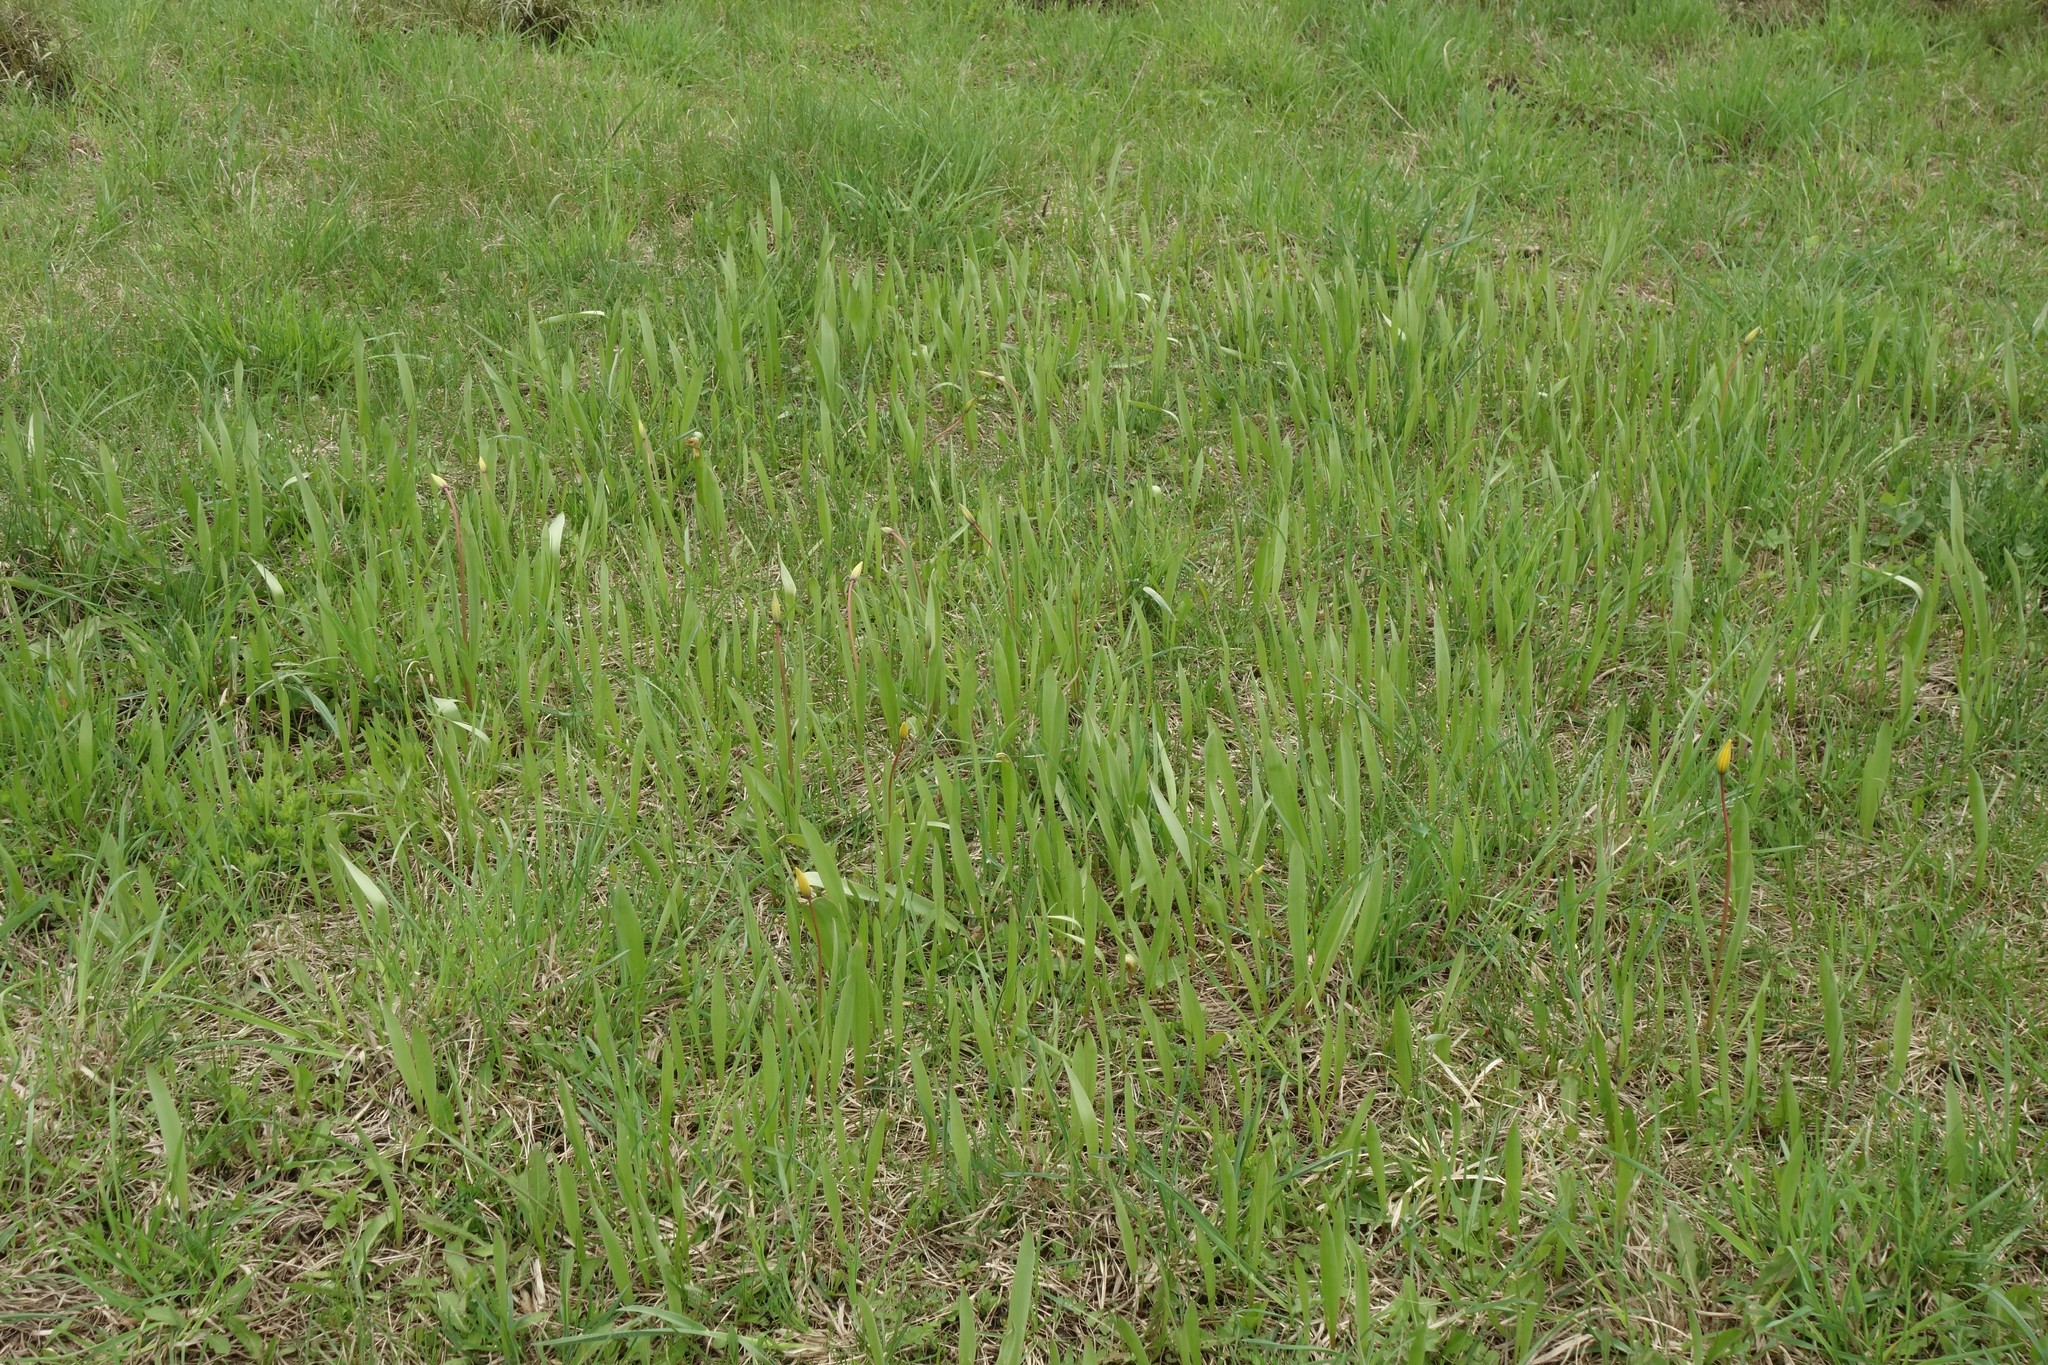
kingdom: Plantae
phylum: Tracheophyta
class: Liliopsida
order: Liliales
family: Liliaceae
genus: Tulipa
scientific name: Tulipa sylvestris
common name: Wild tulip
